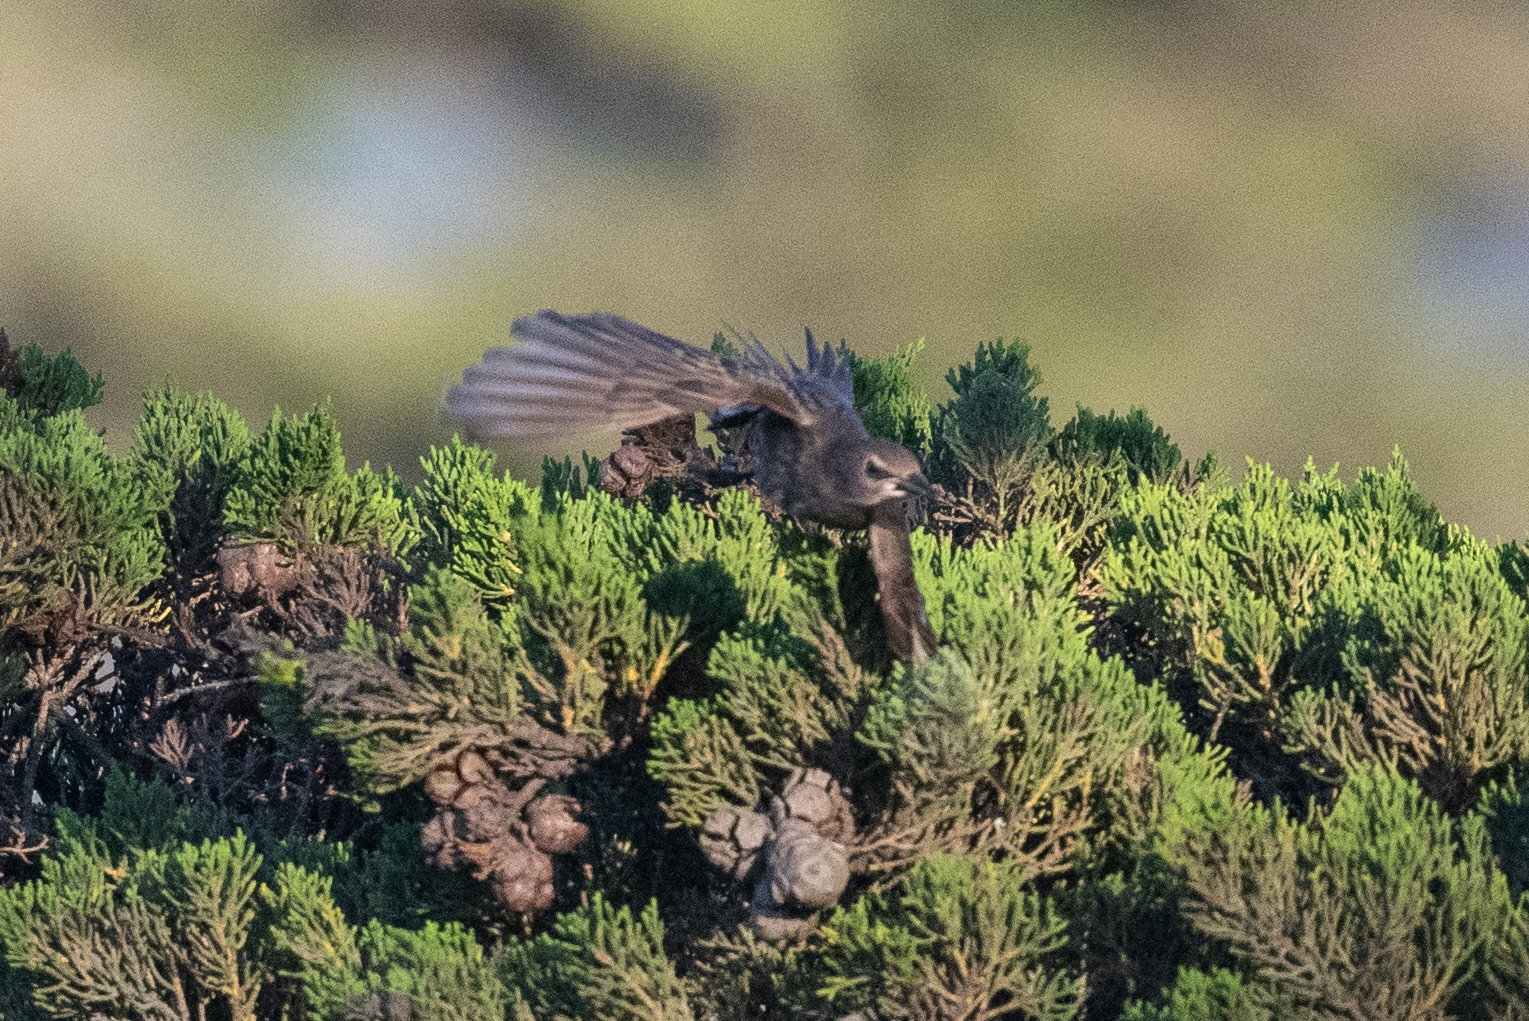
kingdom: Animalia
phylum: Chordata
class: Aves
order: Passeriformes
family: Sturnidae
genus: Sturnus
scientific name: Sturnus vulgaris
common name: Common starling
